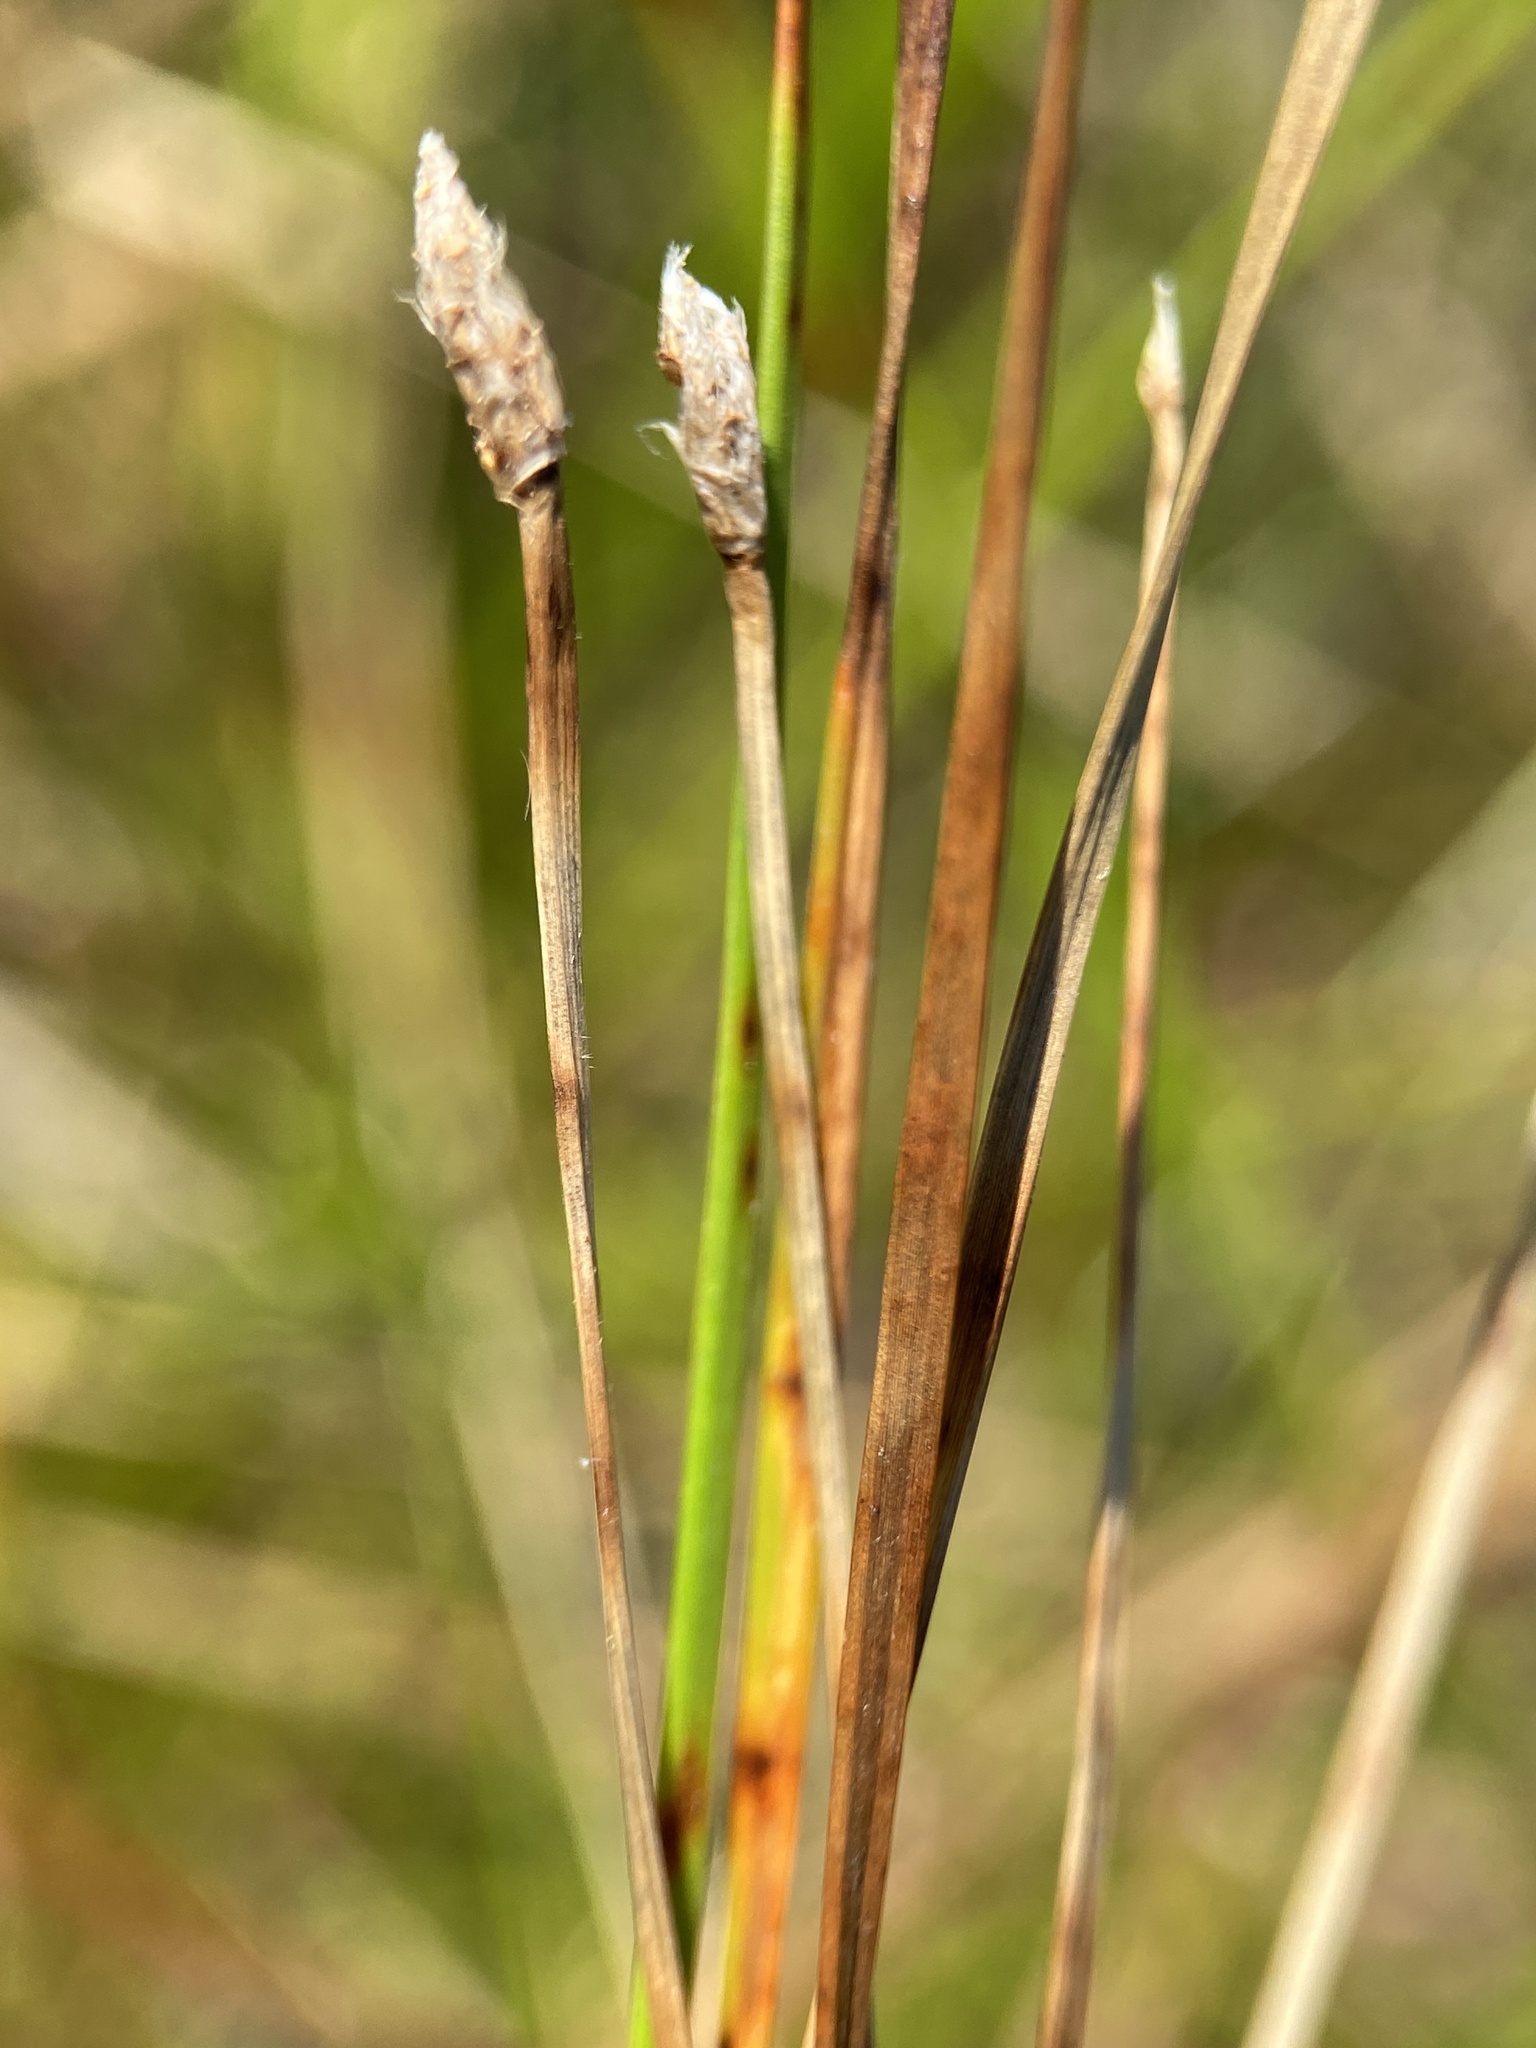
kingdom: Plantae
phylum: Tracheophyta
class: Liliopsida
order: Poales
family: Cyperaceae
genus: Eleocharis
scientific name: Eleocharis compressa
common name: Flat-stem spike-rush
